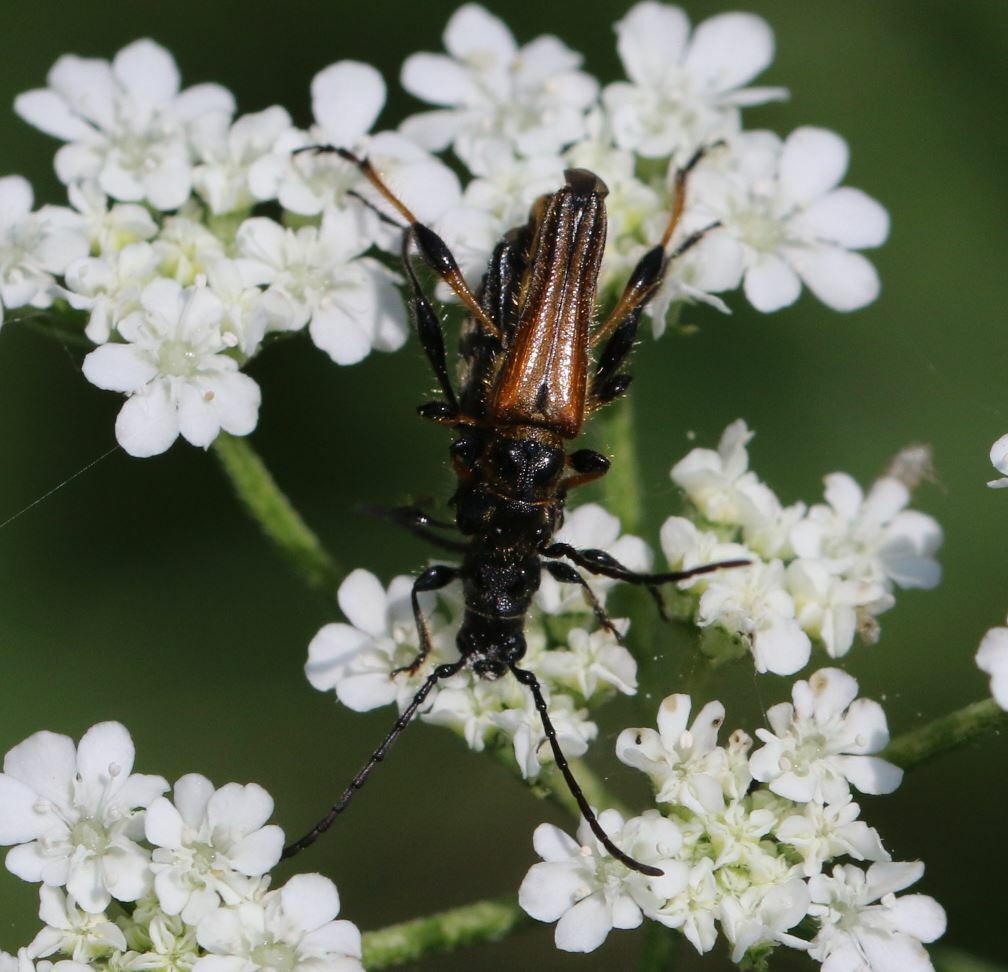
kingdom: Animalia
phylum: Arthropoda
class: Insecta
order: Coleoptera
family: Cerambycidae
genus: Stenopterus
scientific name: Stenopterus ater
